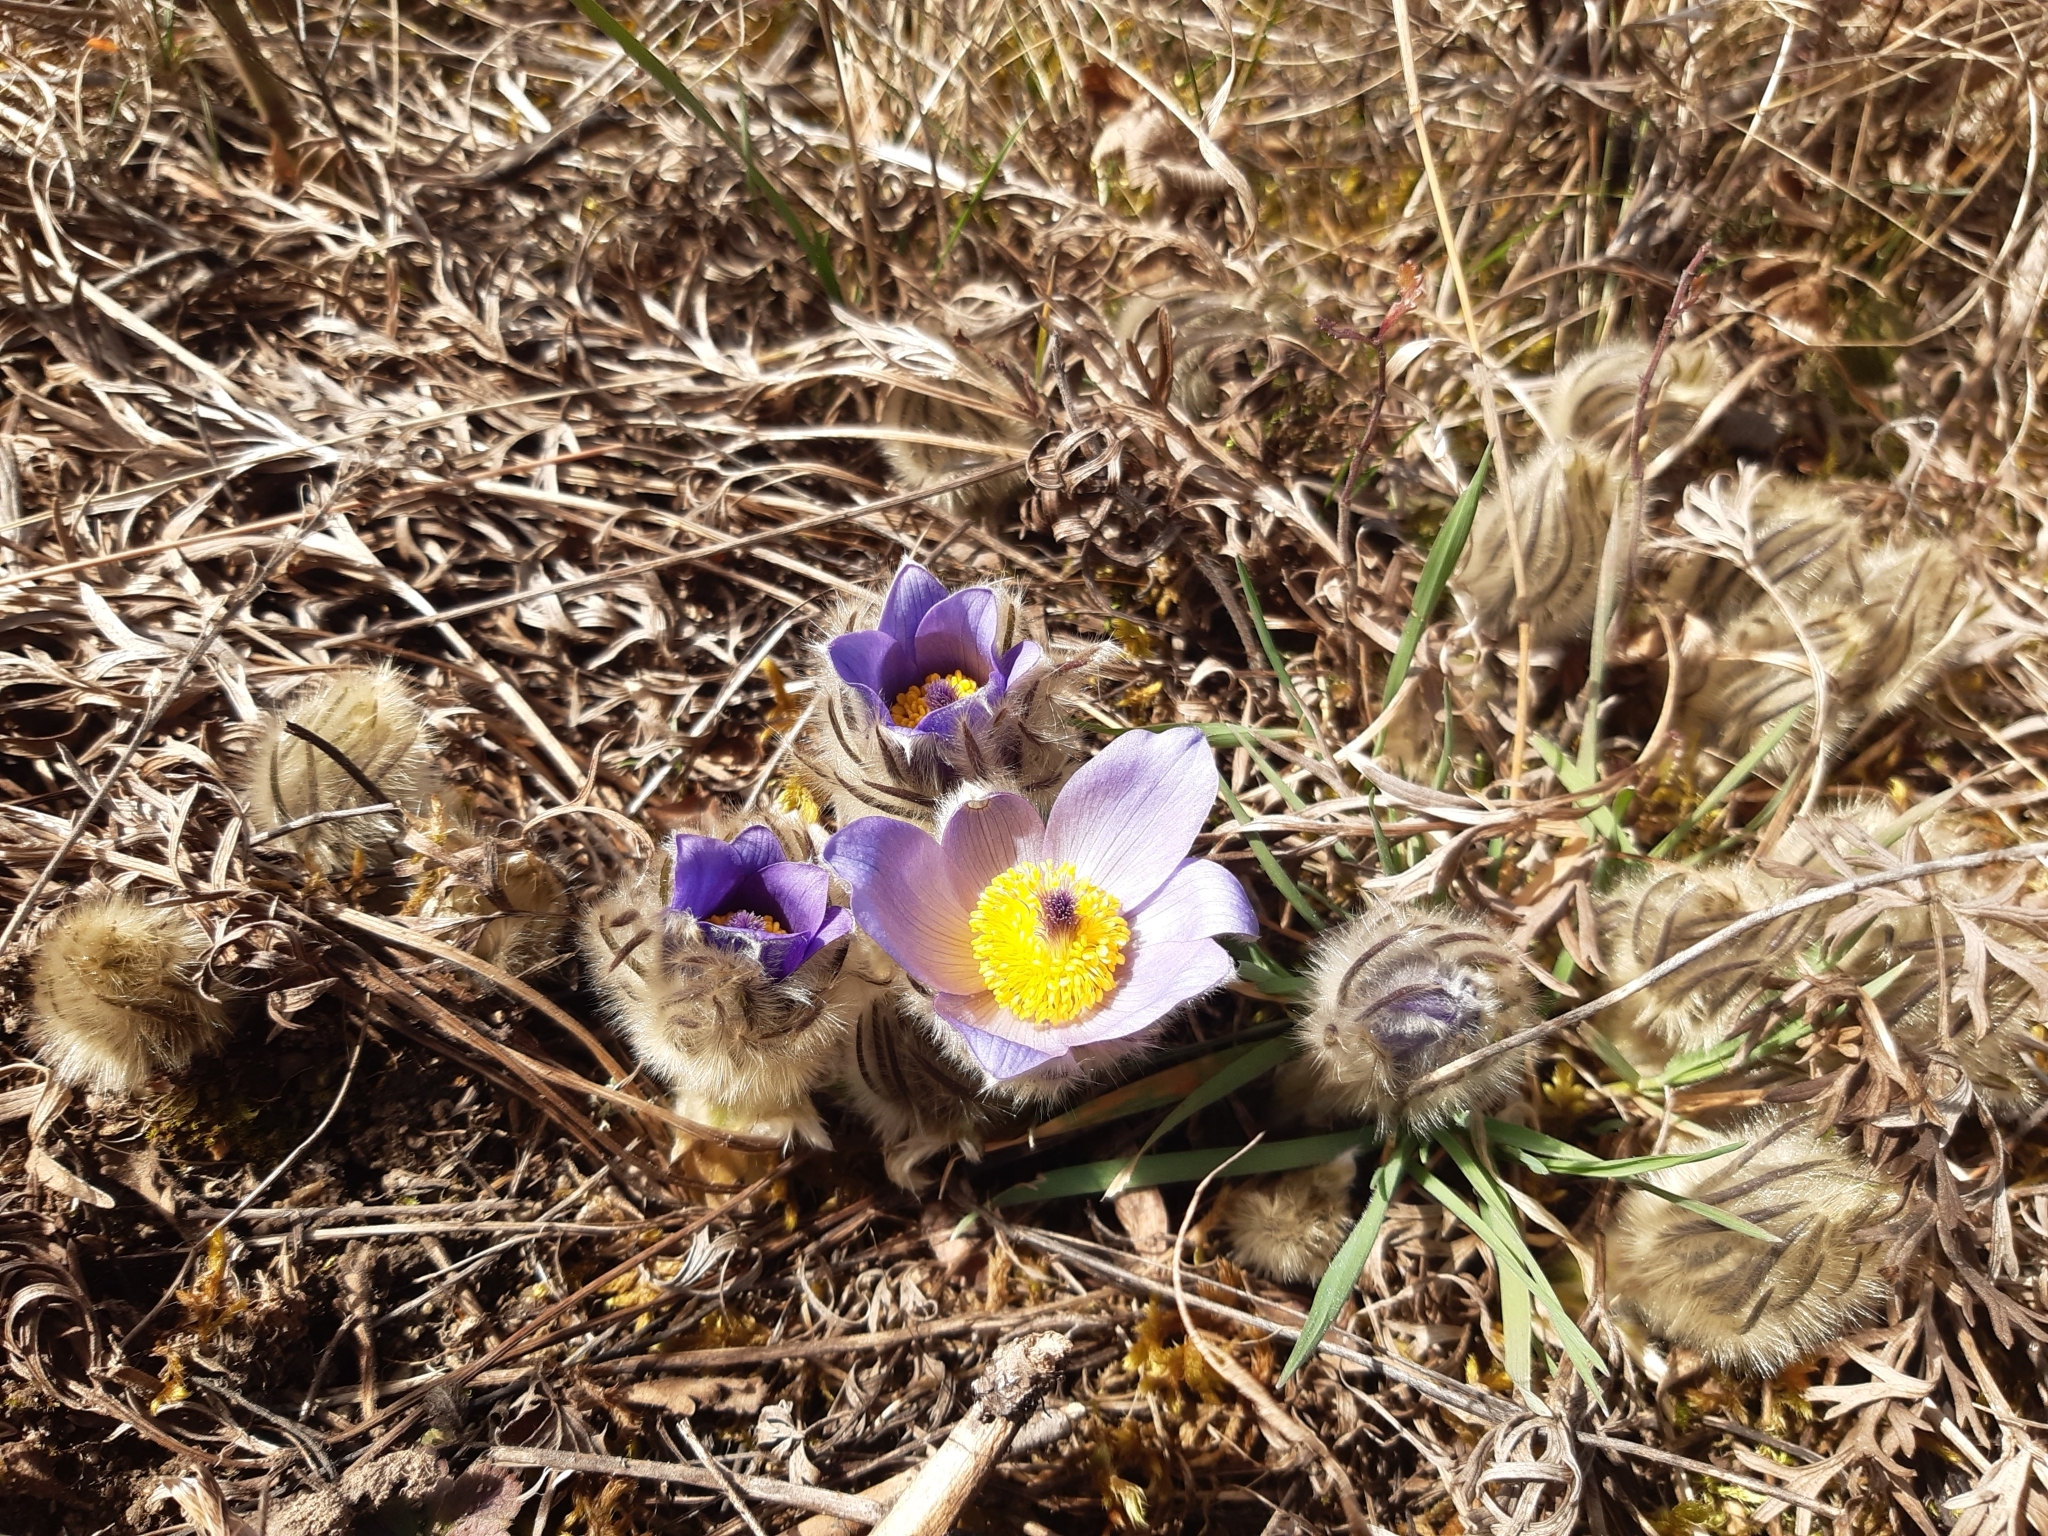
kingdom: Plantae
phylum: Tracheophyta
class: Magnoliopsida
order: Ranunculales
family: Ranunculaceae
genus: Pulsatilla
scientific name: Pulsatilla grandis
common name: Greater pasque flower
